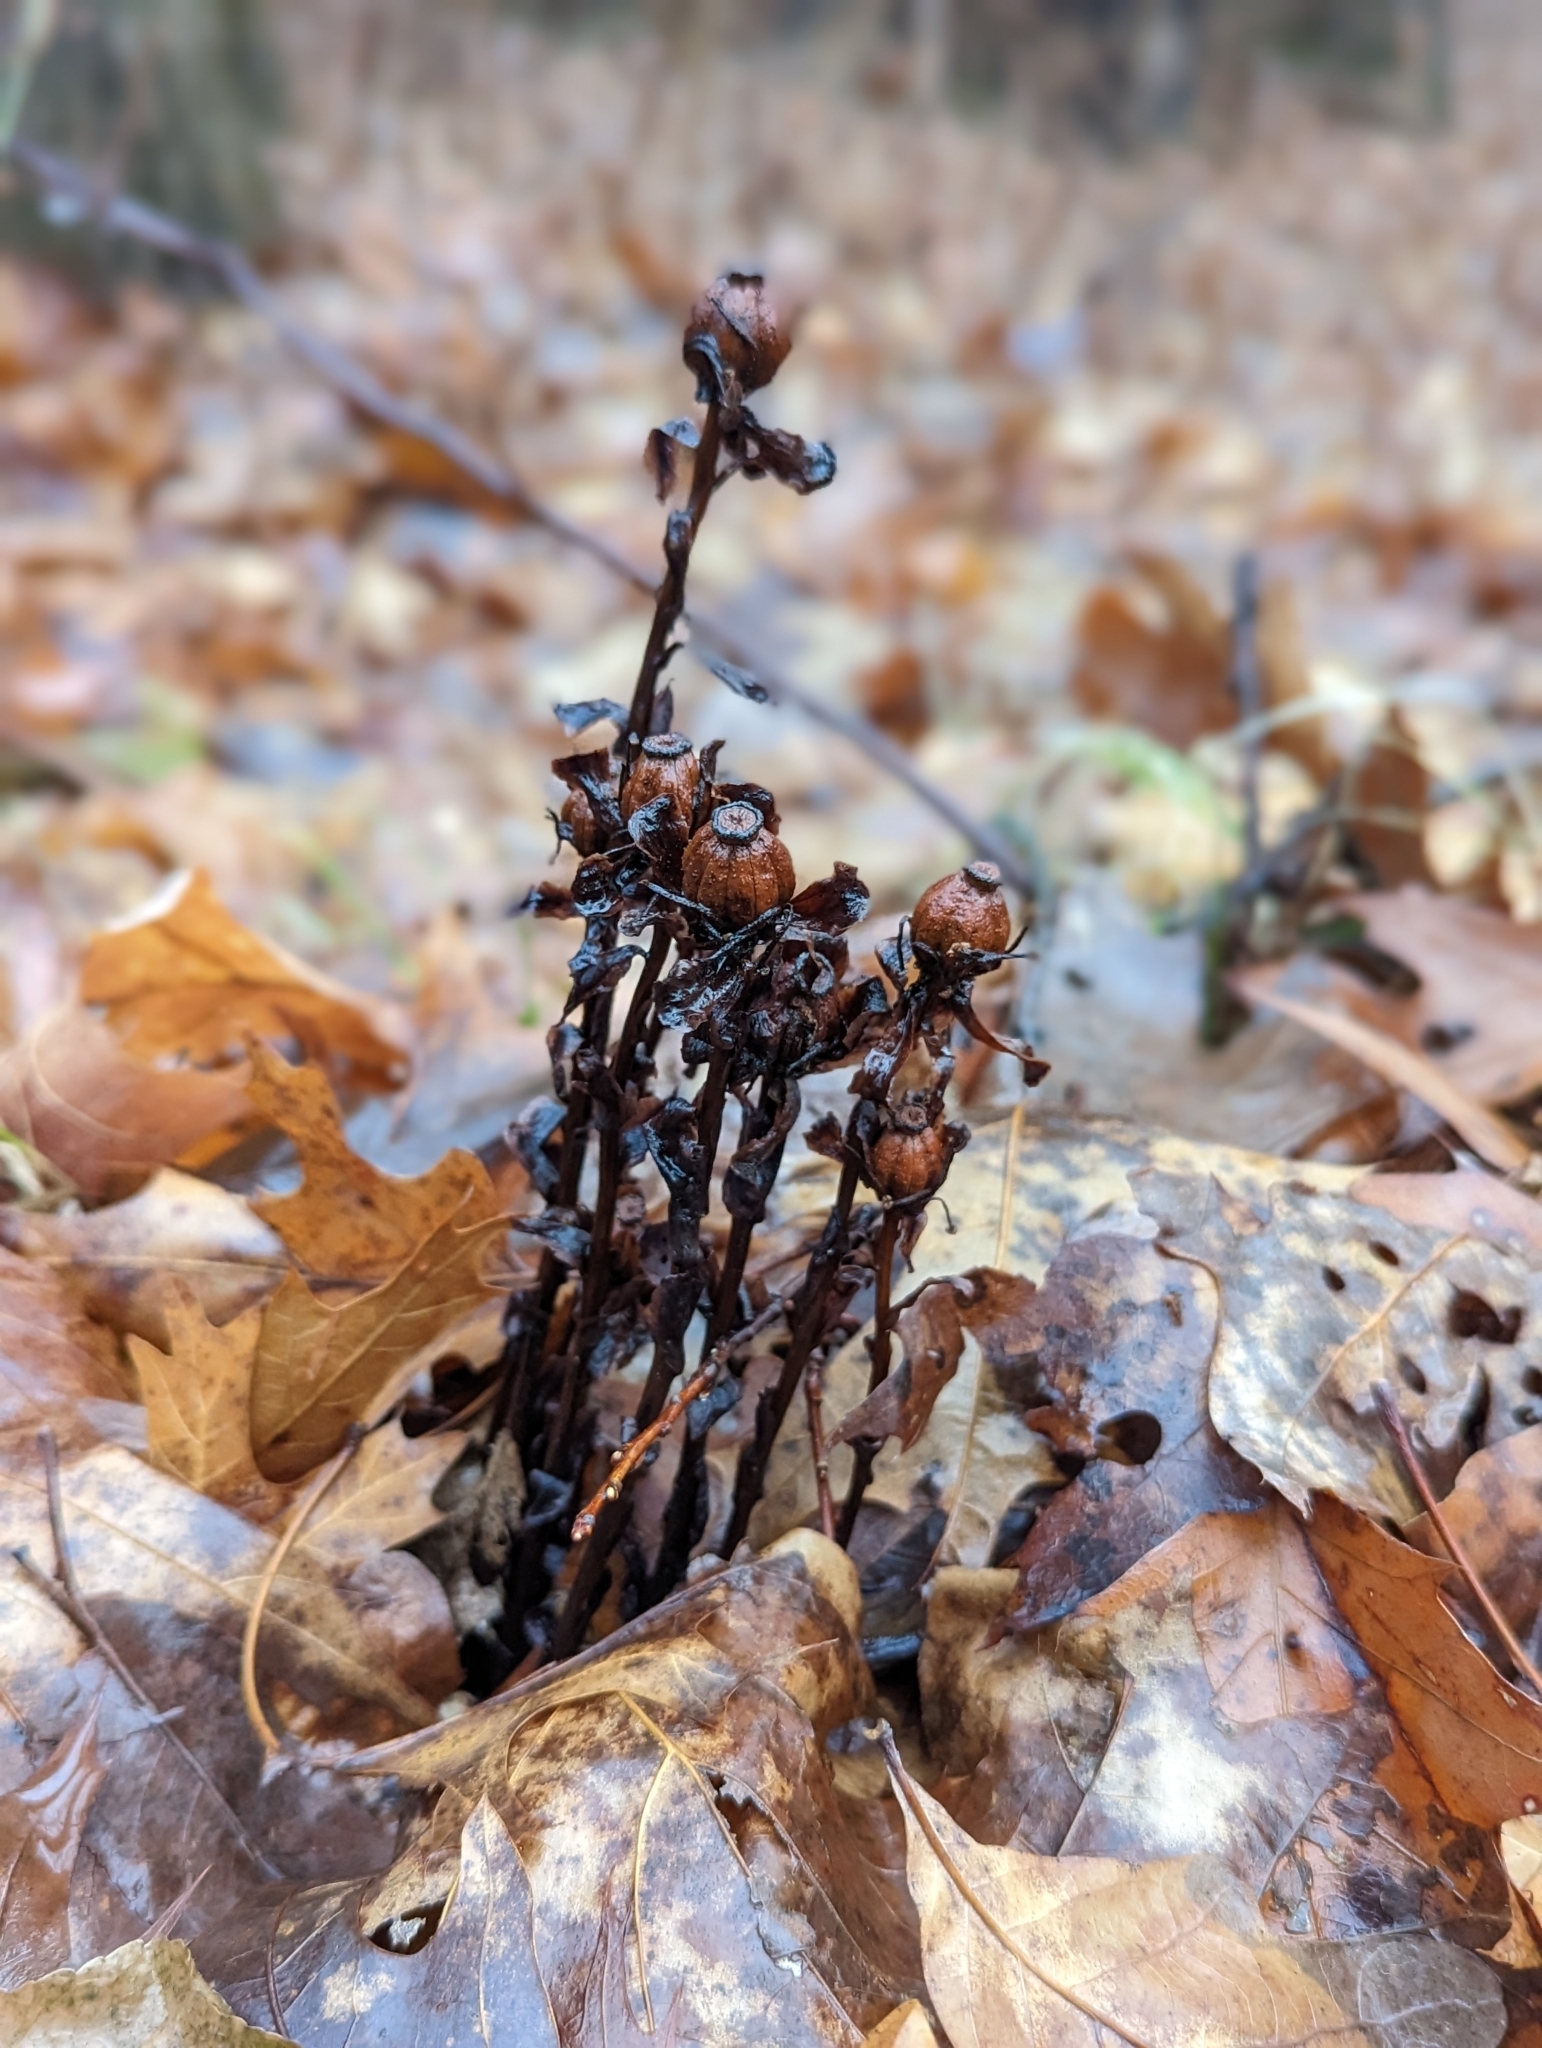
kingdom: Plantae
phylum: Tracheophyta
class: Magnoliopsida
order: Ericales
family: Ericaceae
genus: Monotropa
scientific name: Monotropa uniflora
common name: Convulsion root
